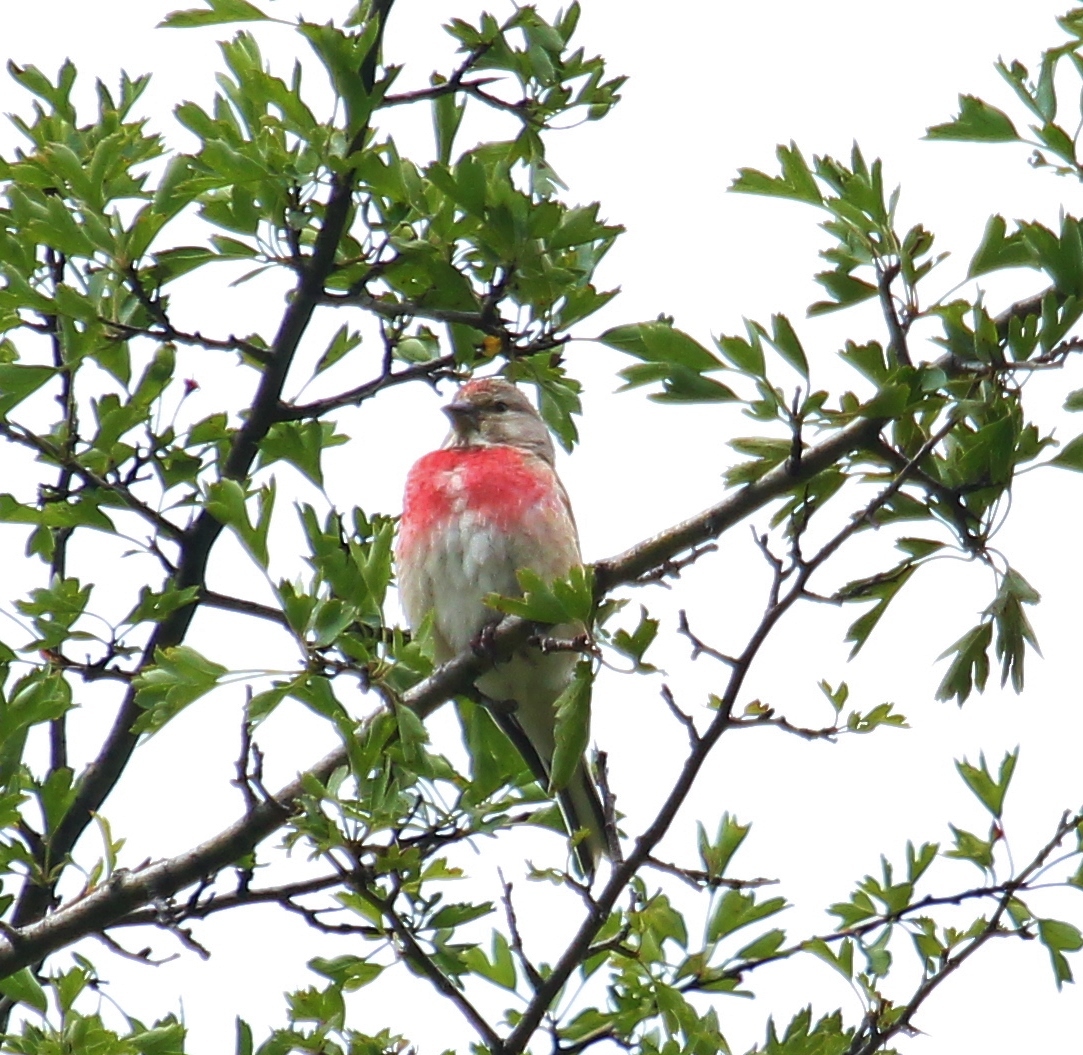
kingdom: Animalia
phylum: Chordata
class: Aves
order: Passeriformes
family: Fringillidae
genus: Linaria
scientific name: Linaria cannabina
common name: Common linnet
